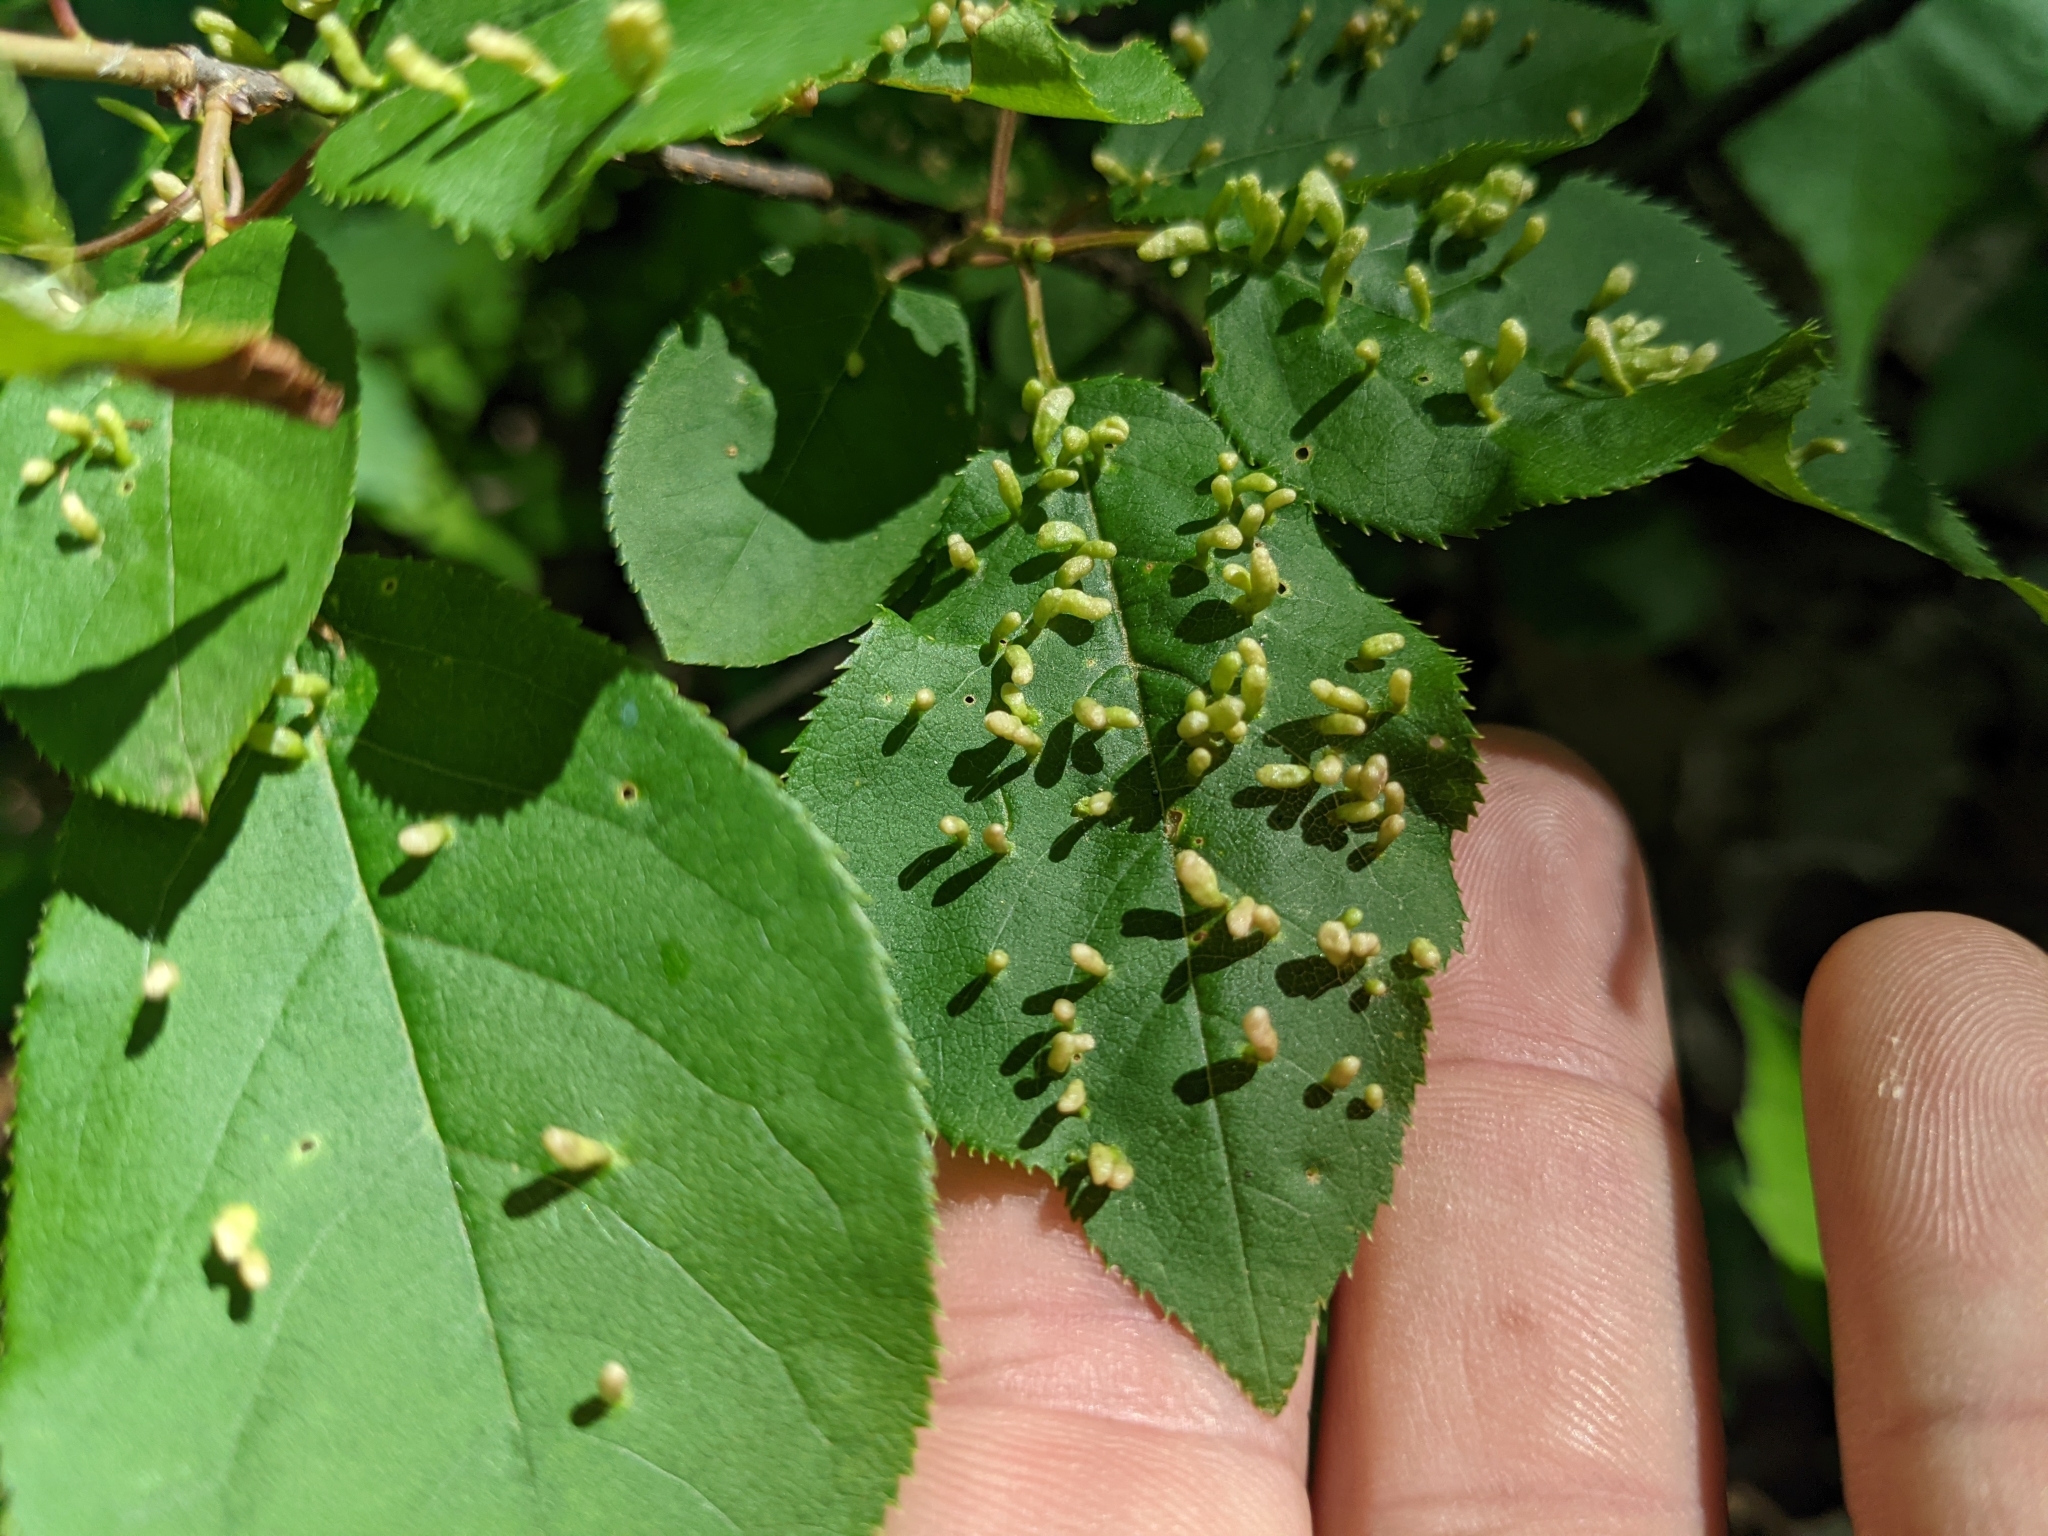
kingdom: Animalia
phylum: Arthropoda
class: Arachnida
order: Trombidiformes
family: Eriophyidae
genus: Eriophyes
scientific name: Eriophyes emarginatae
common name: Plum leaf gall mite
